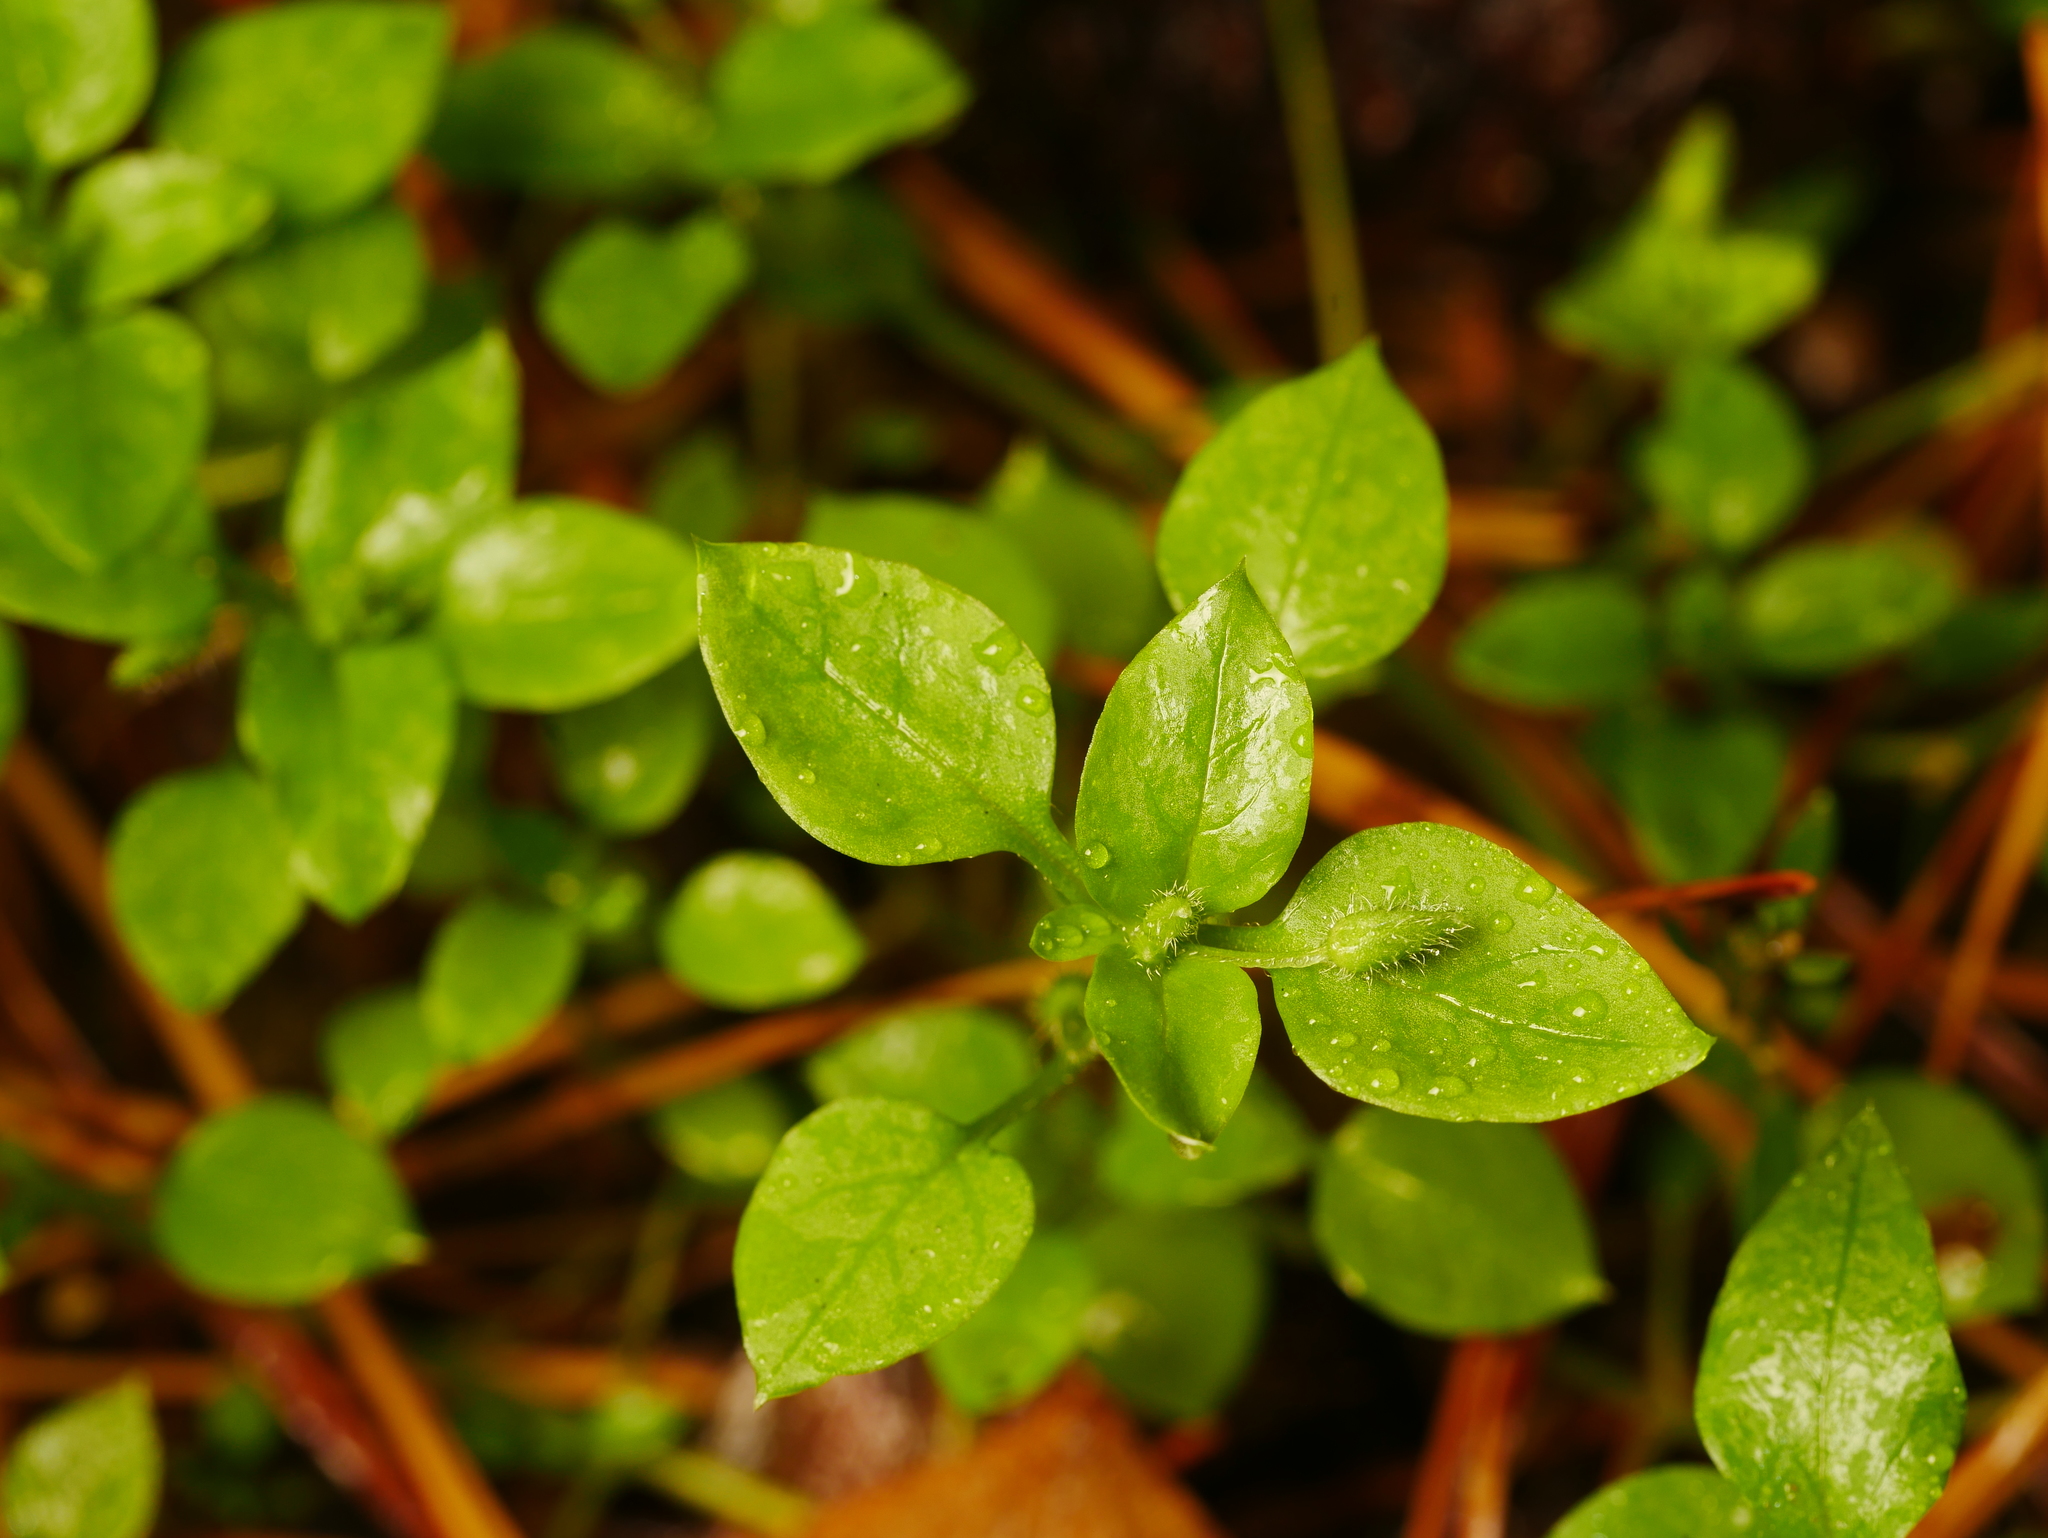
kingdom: Plantae
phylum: Tracheophyta
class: Magnoliopsida
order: Caryophyllales
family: Caryophyllaceae
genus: Stellaria
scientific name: Stellaria media
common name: Common chickweed
